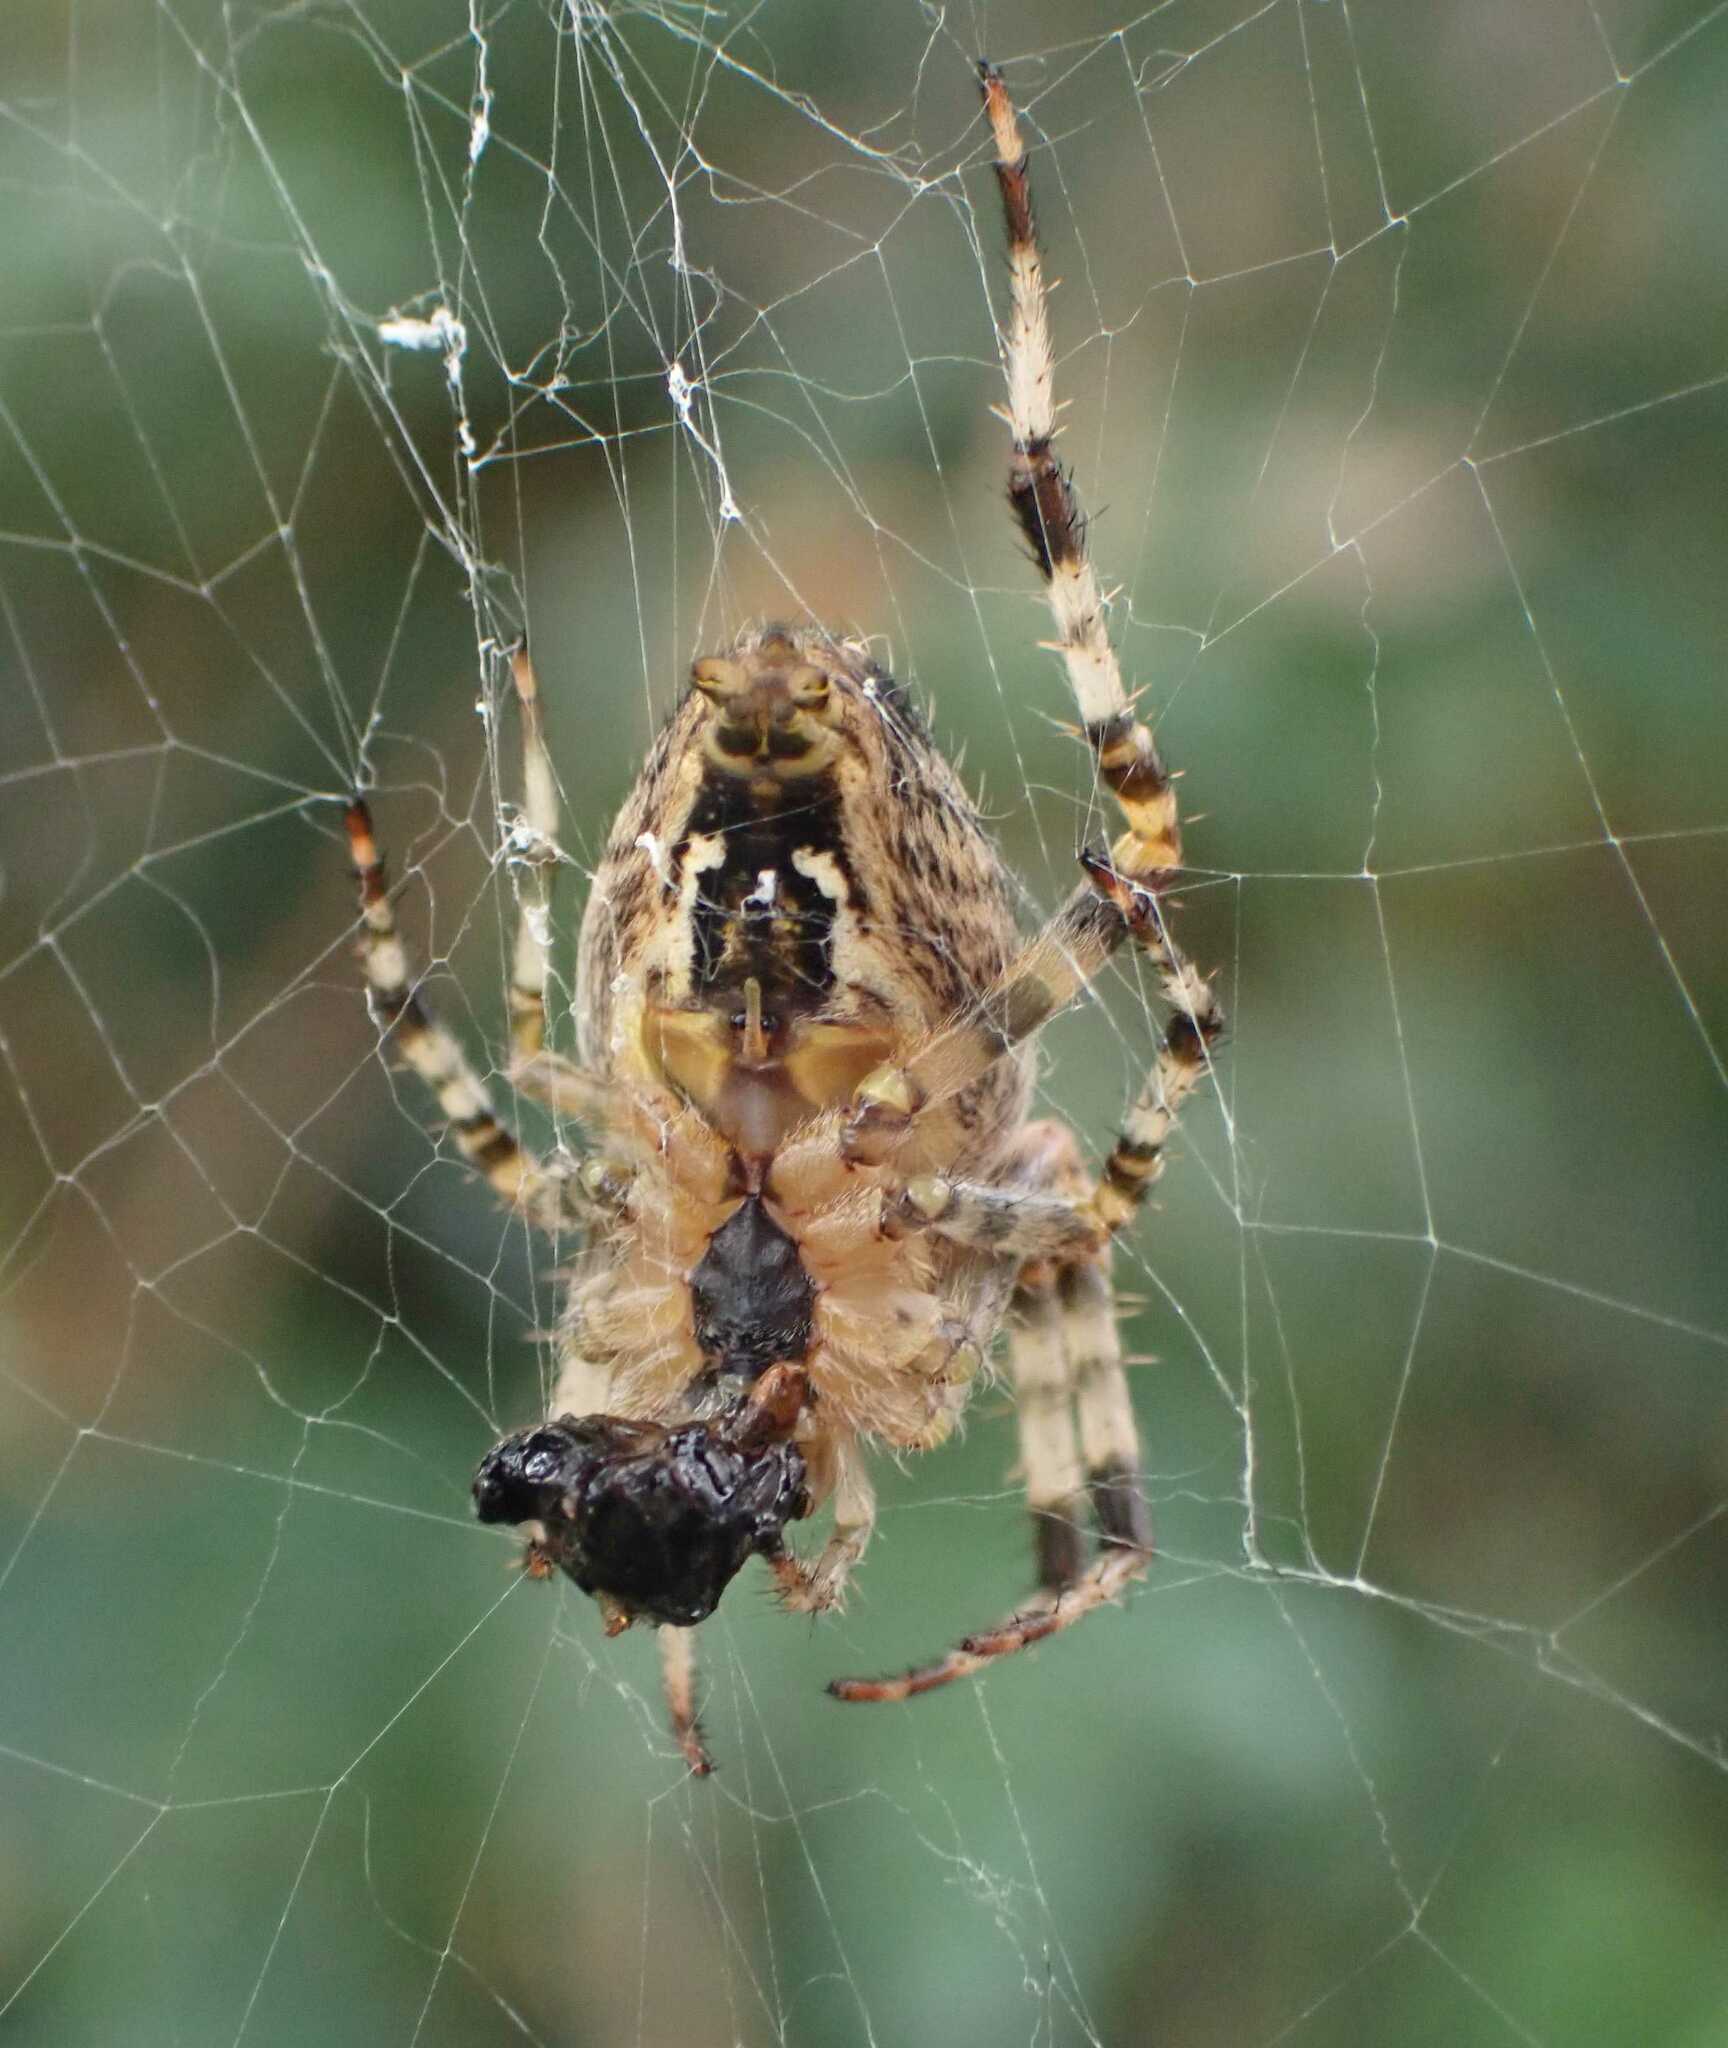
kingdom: Animalia
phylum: Arthropoda
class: Arachnida
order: Araneae
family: Araneidae
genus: Araneus
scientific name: Araneus diadematus
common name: Cross orbweaver
